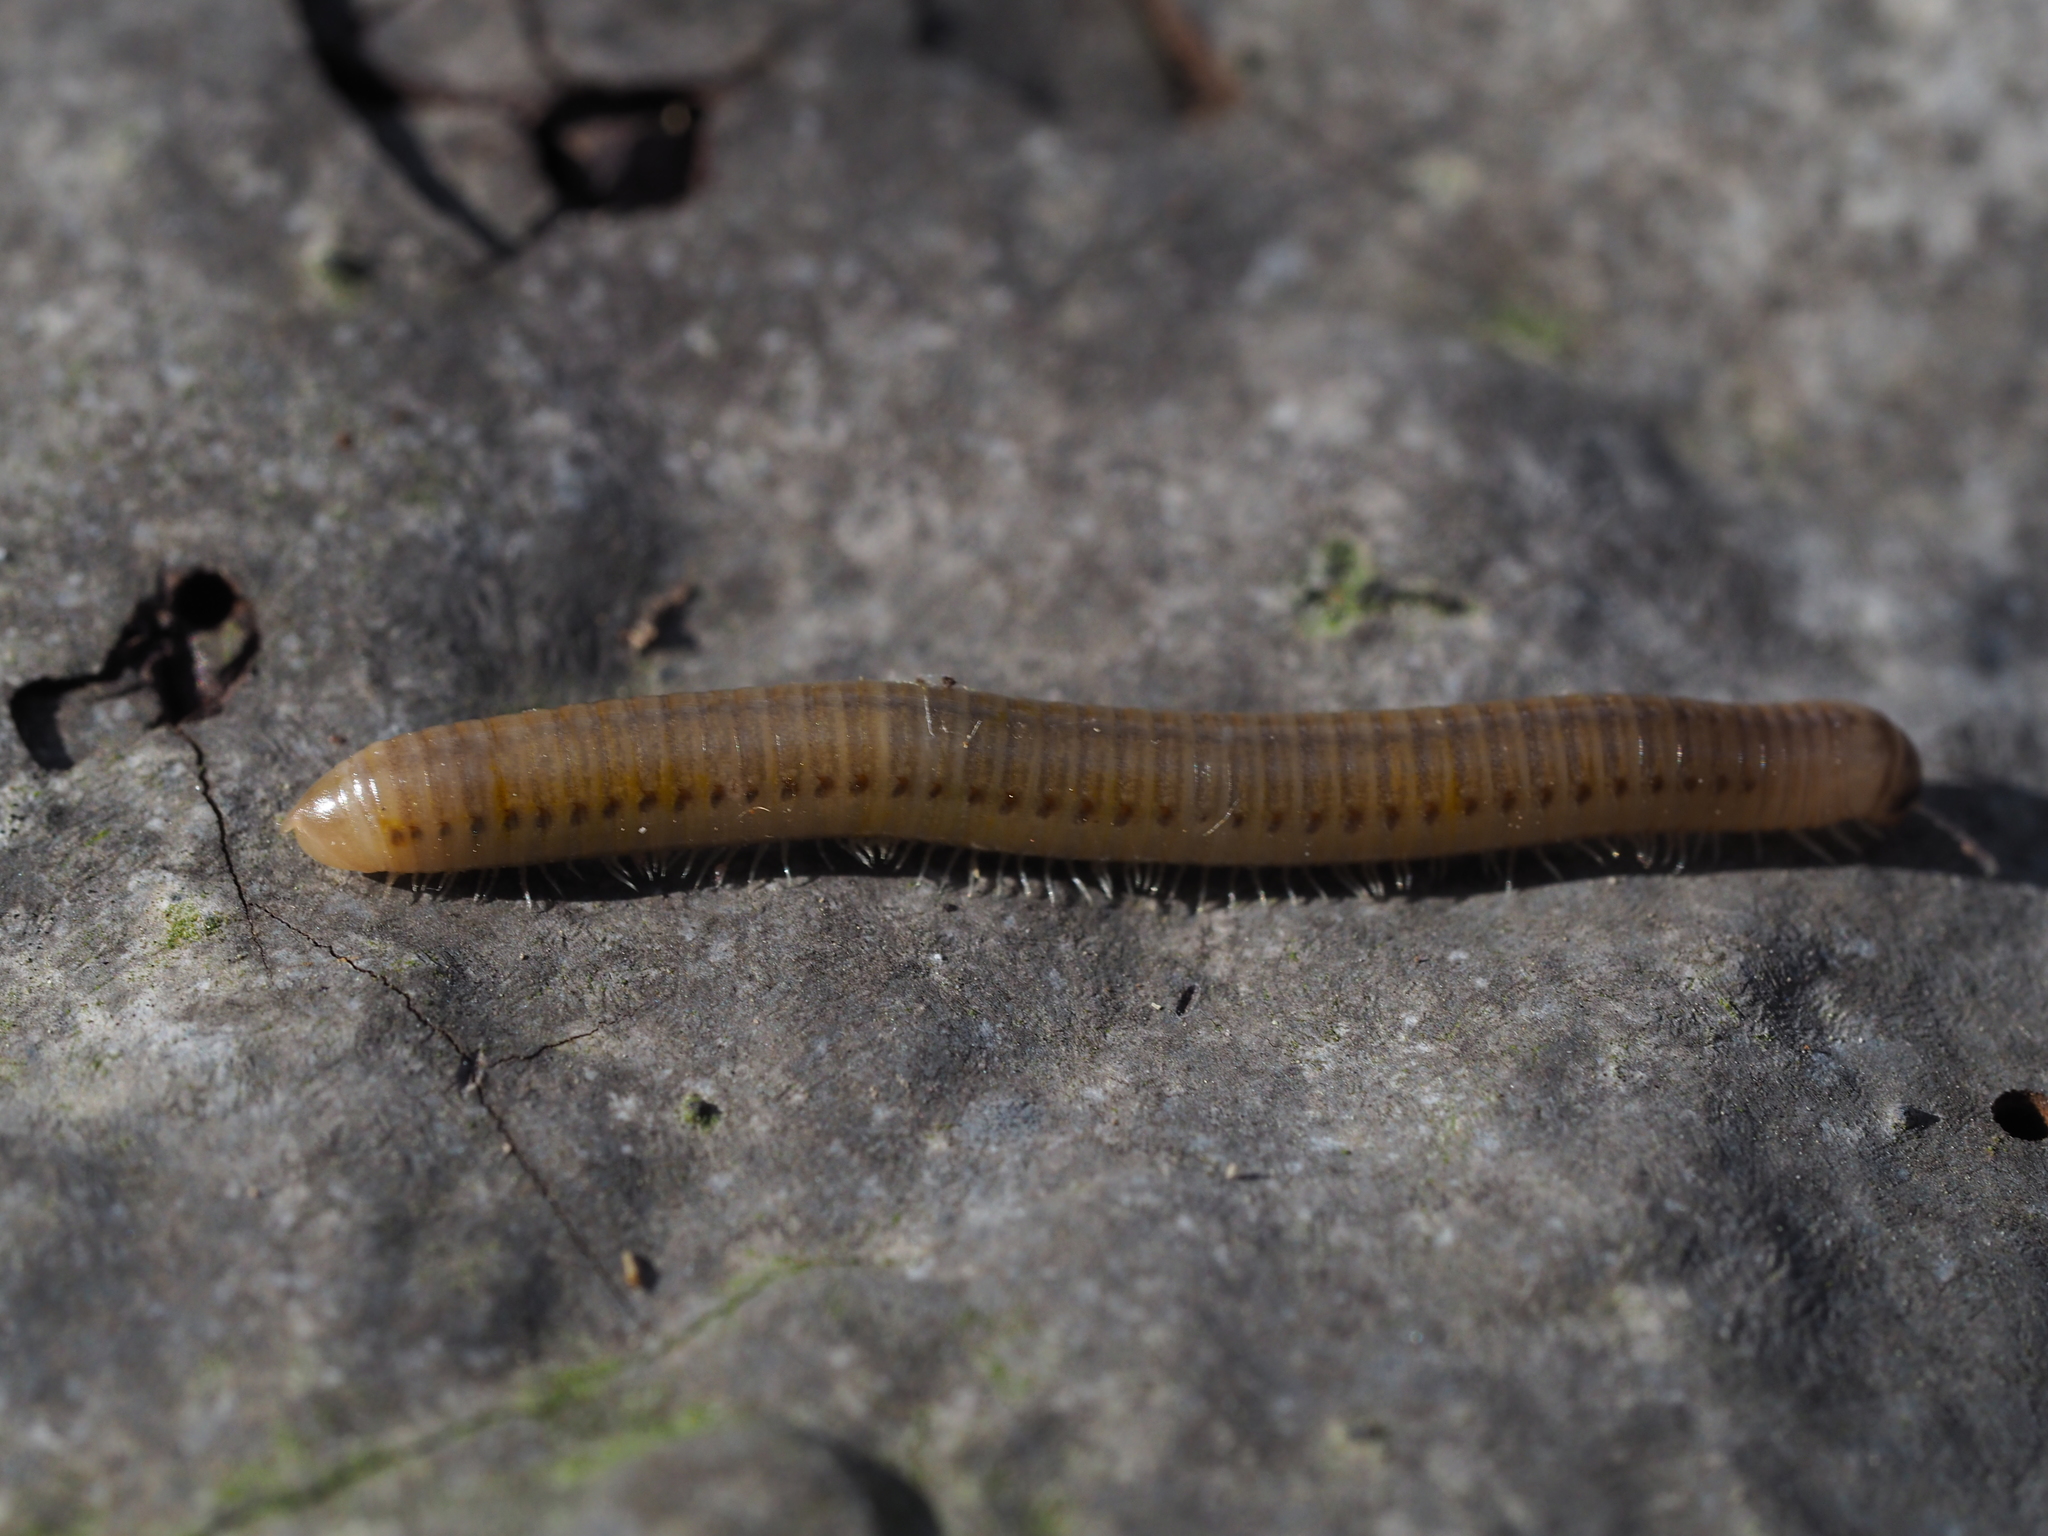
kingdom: Animalia
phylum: Arthropoda
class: Diplopoda
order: Julida
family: Julidae
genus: Cylindroiulus
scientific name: Cylindroiulus luridus
